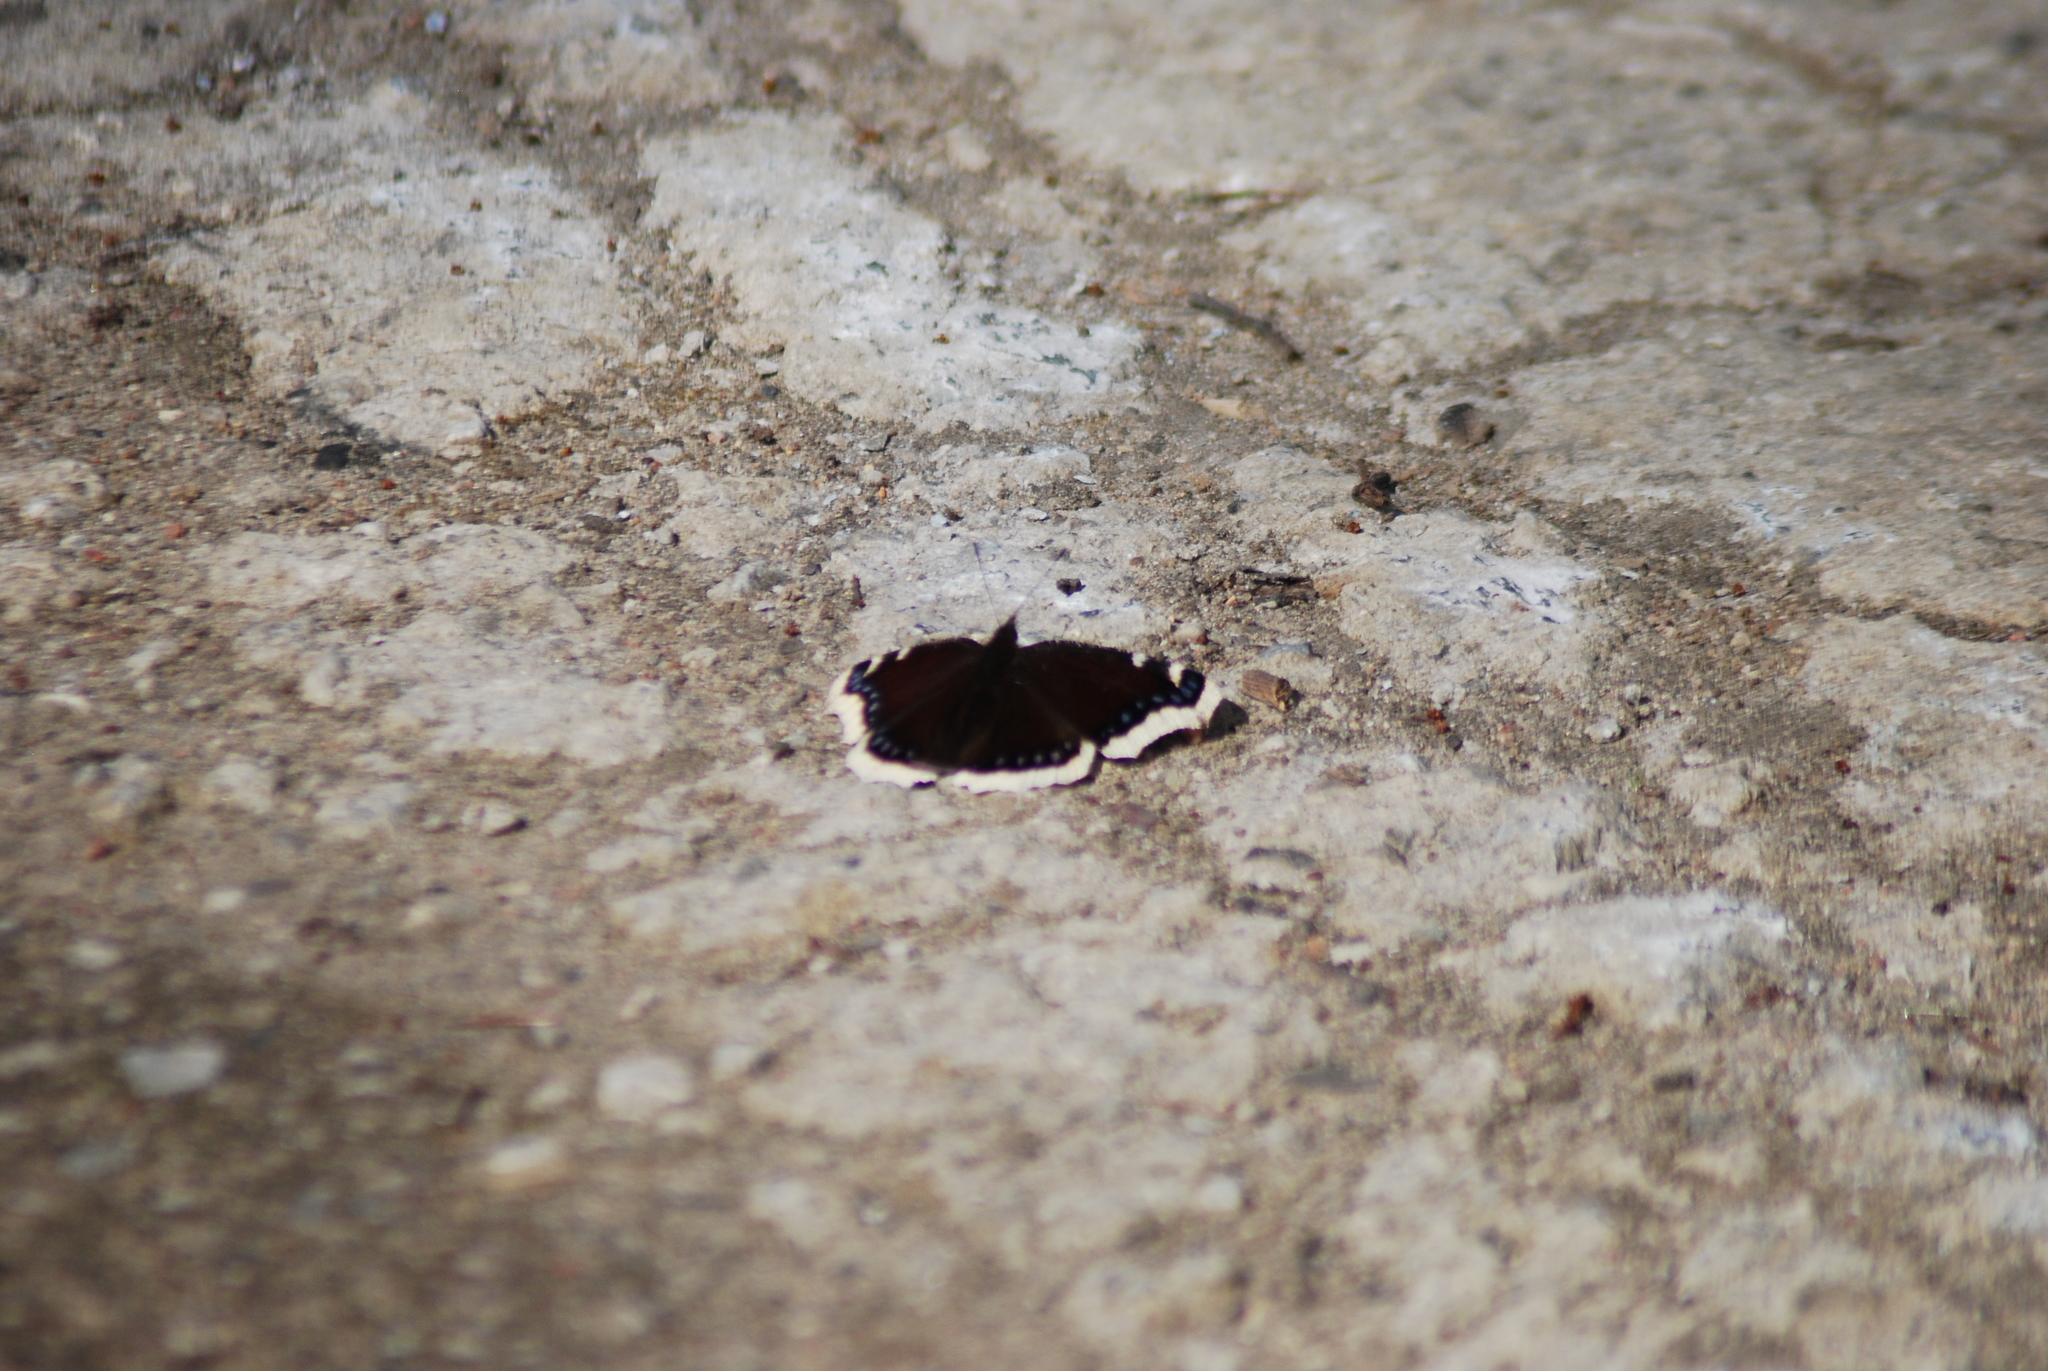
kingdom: Animalia
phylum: Arthropoda
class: Insecta
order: Lepidoptera
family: Nymphalidae
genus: Nymphalis
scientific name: Nymphalis antiopa
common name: Camberwell beauty
